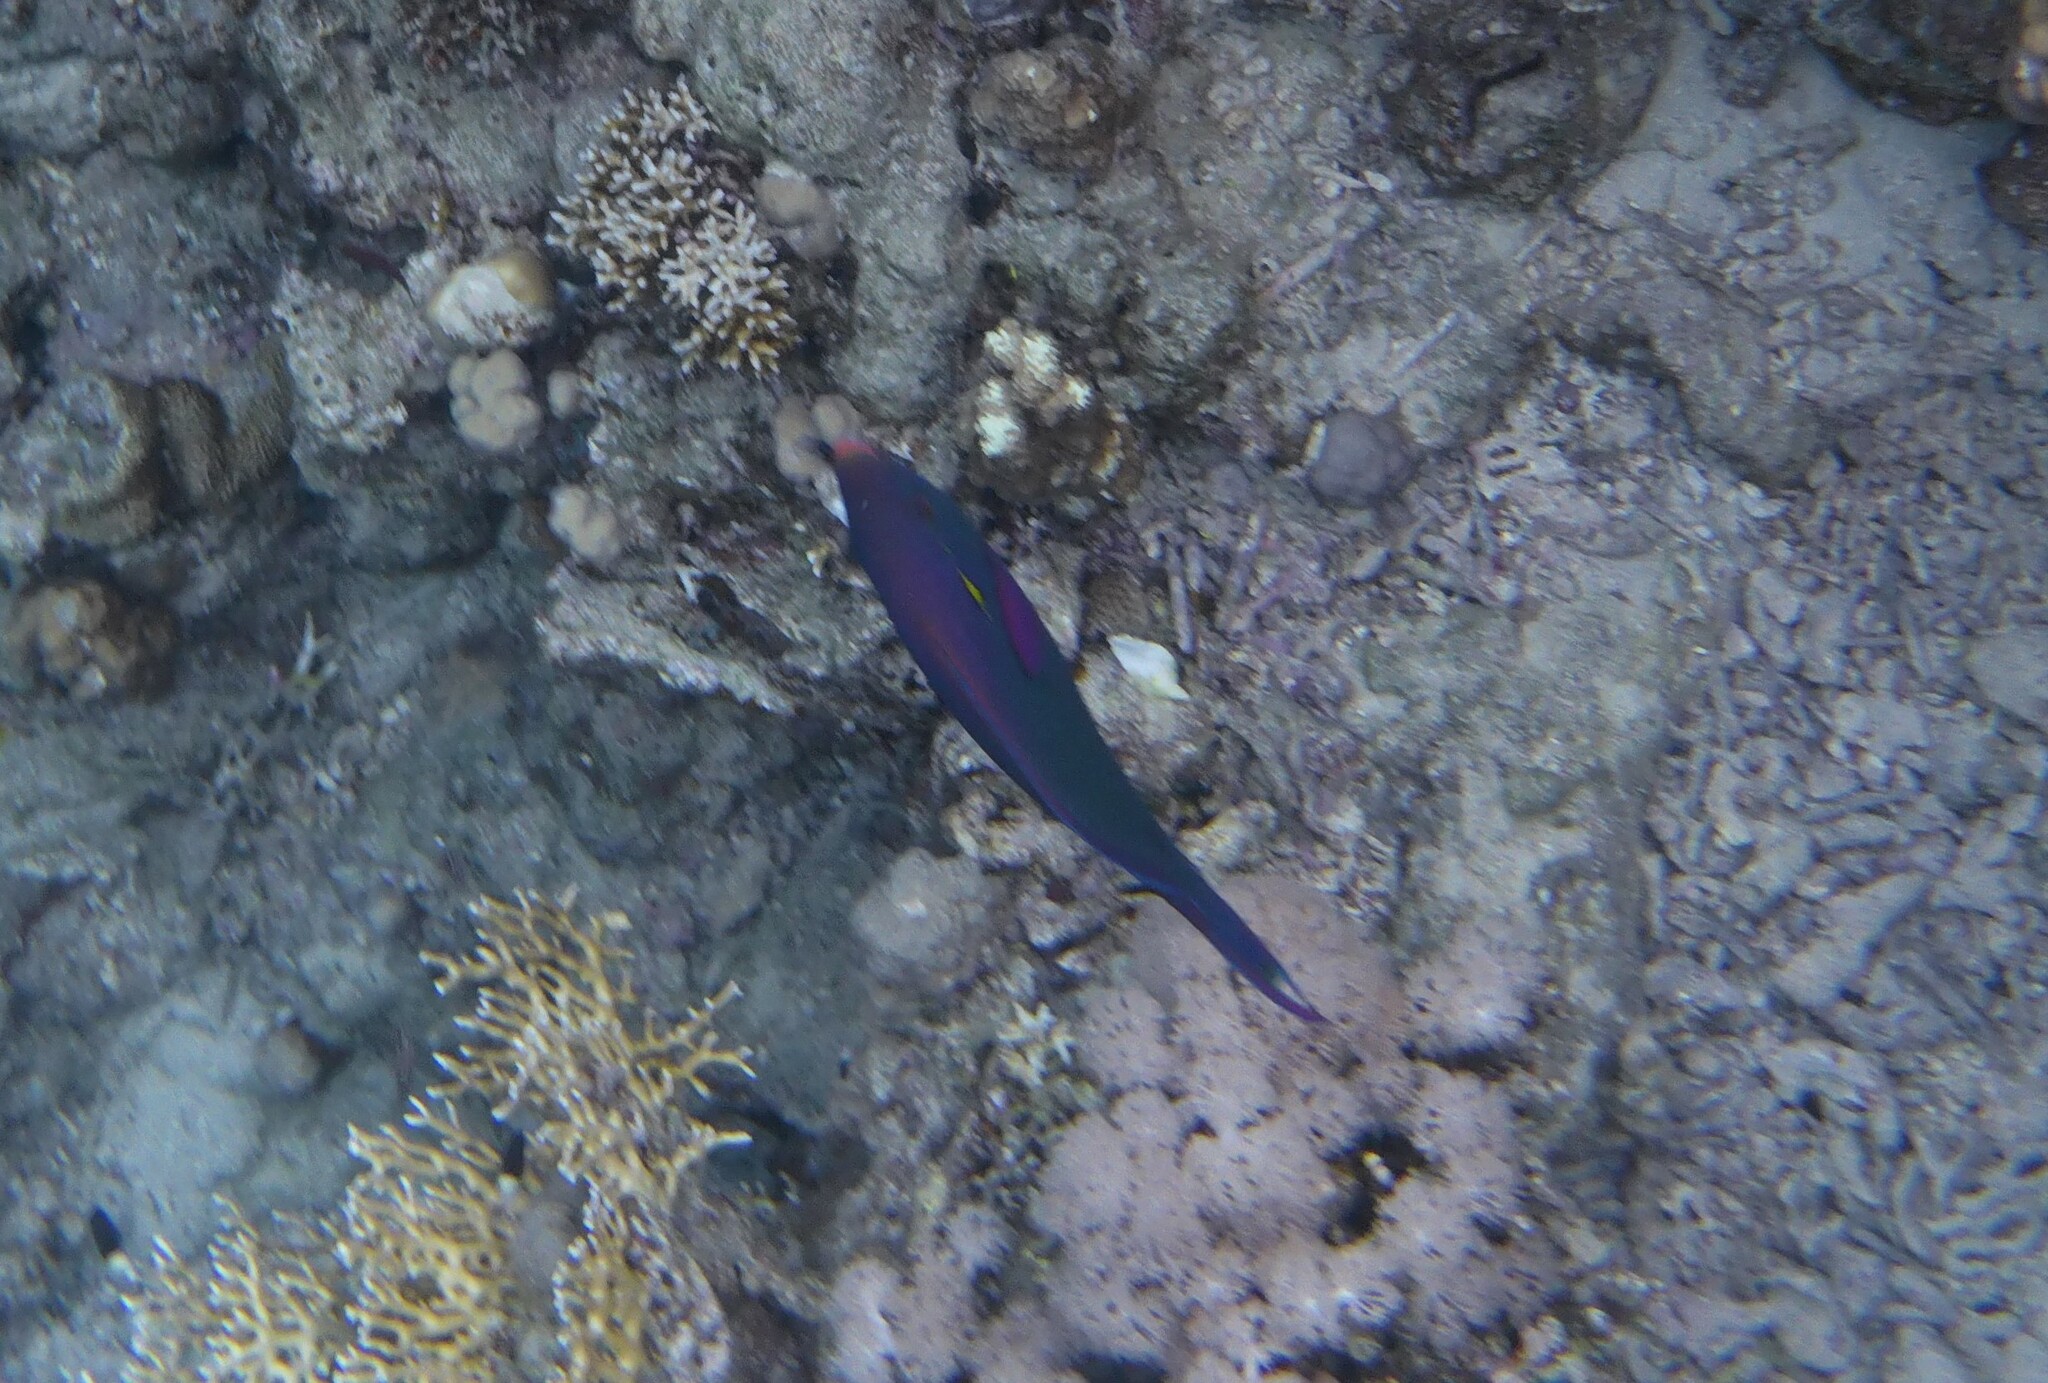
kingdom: Animalia
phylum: Chordata
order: Perciformes
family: Scaridae
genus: Scarus
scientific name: Scarus niger
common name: Dusky parrotfish
